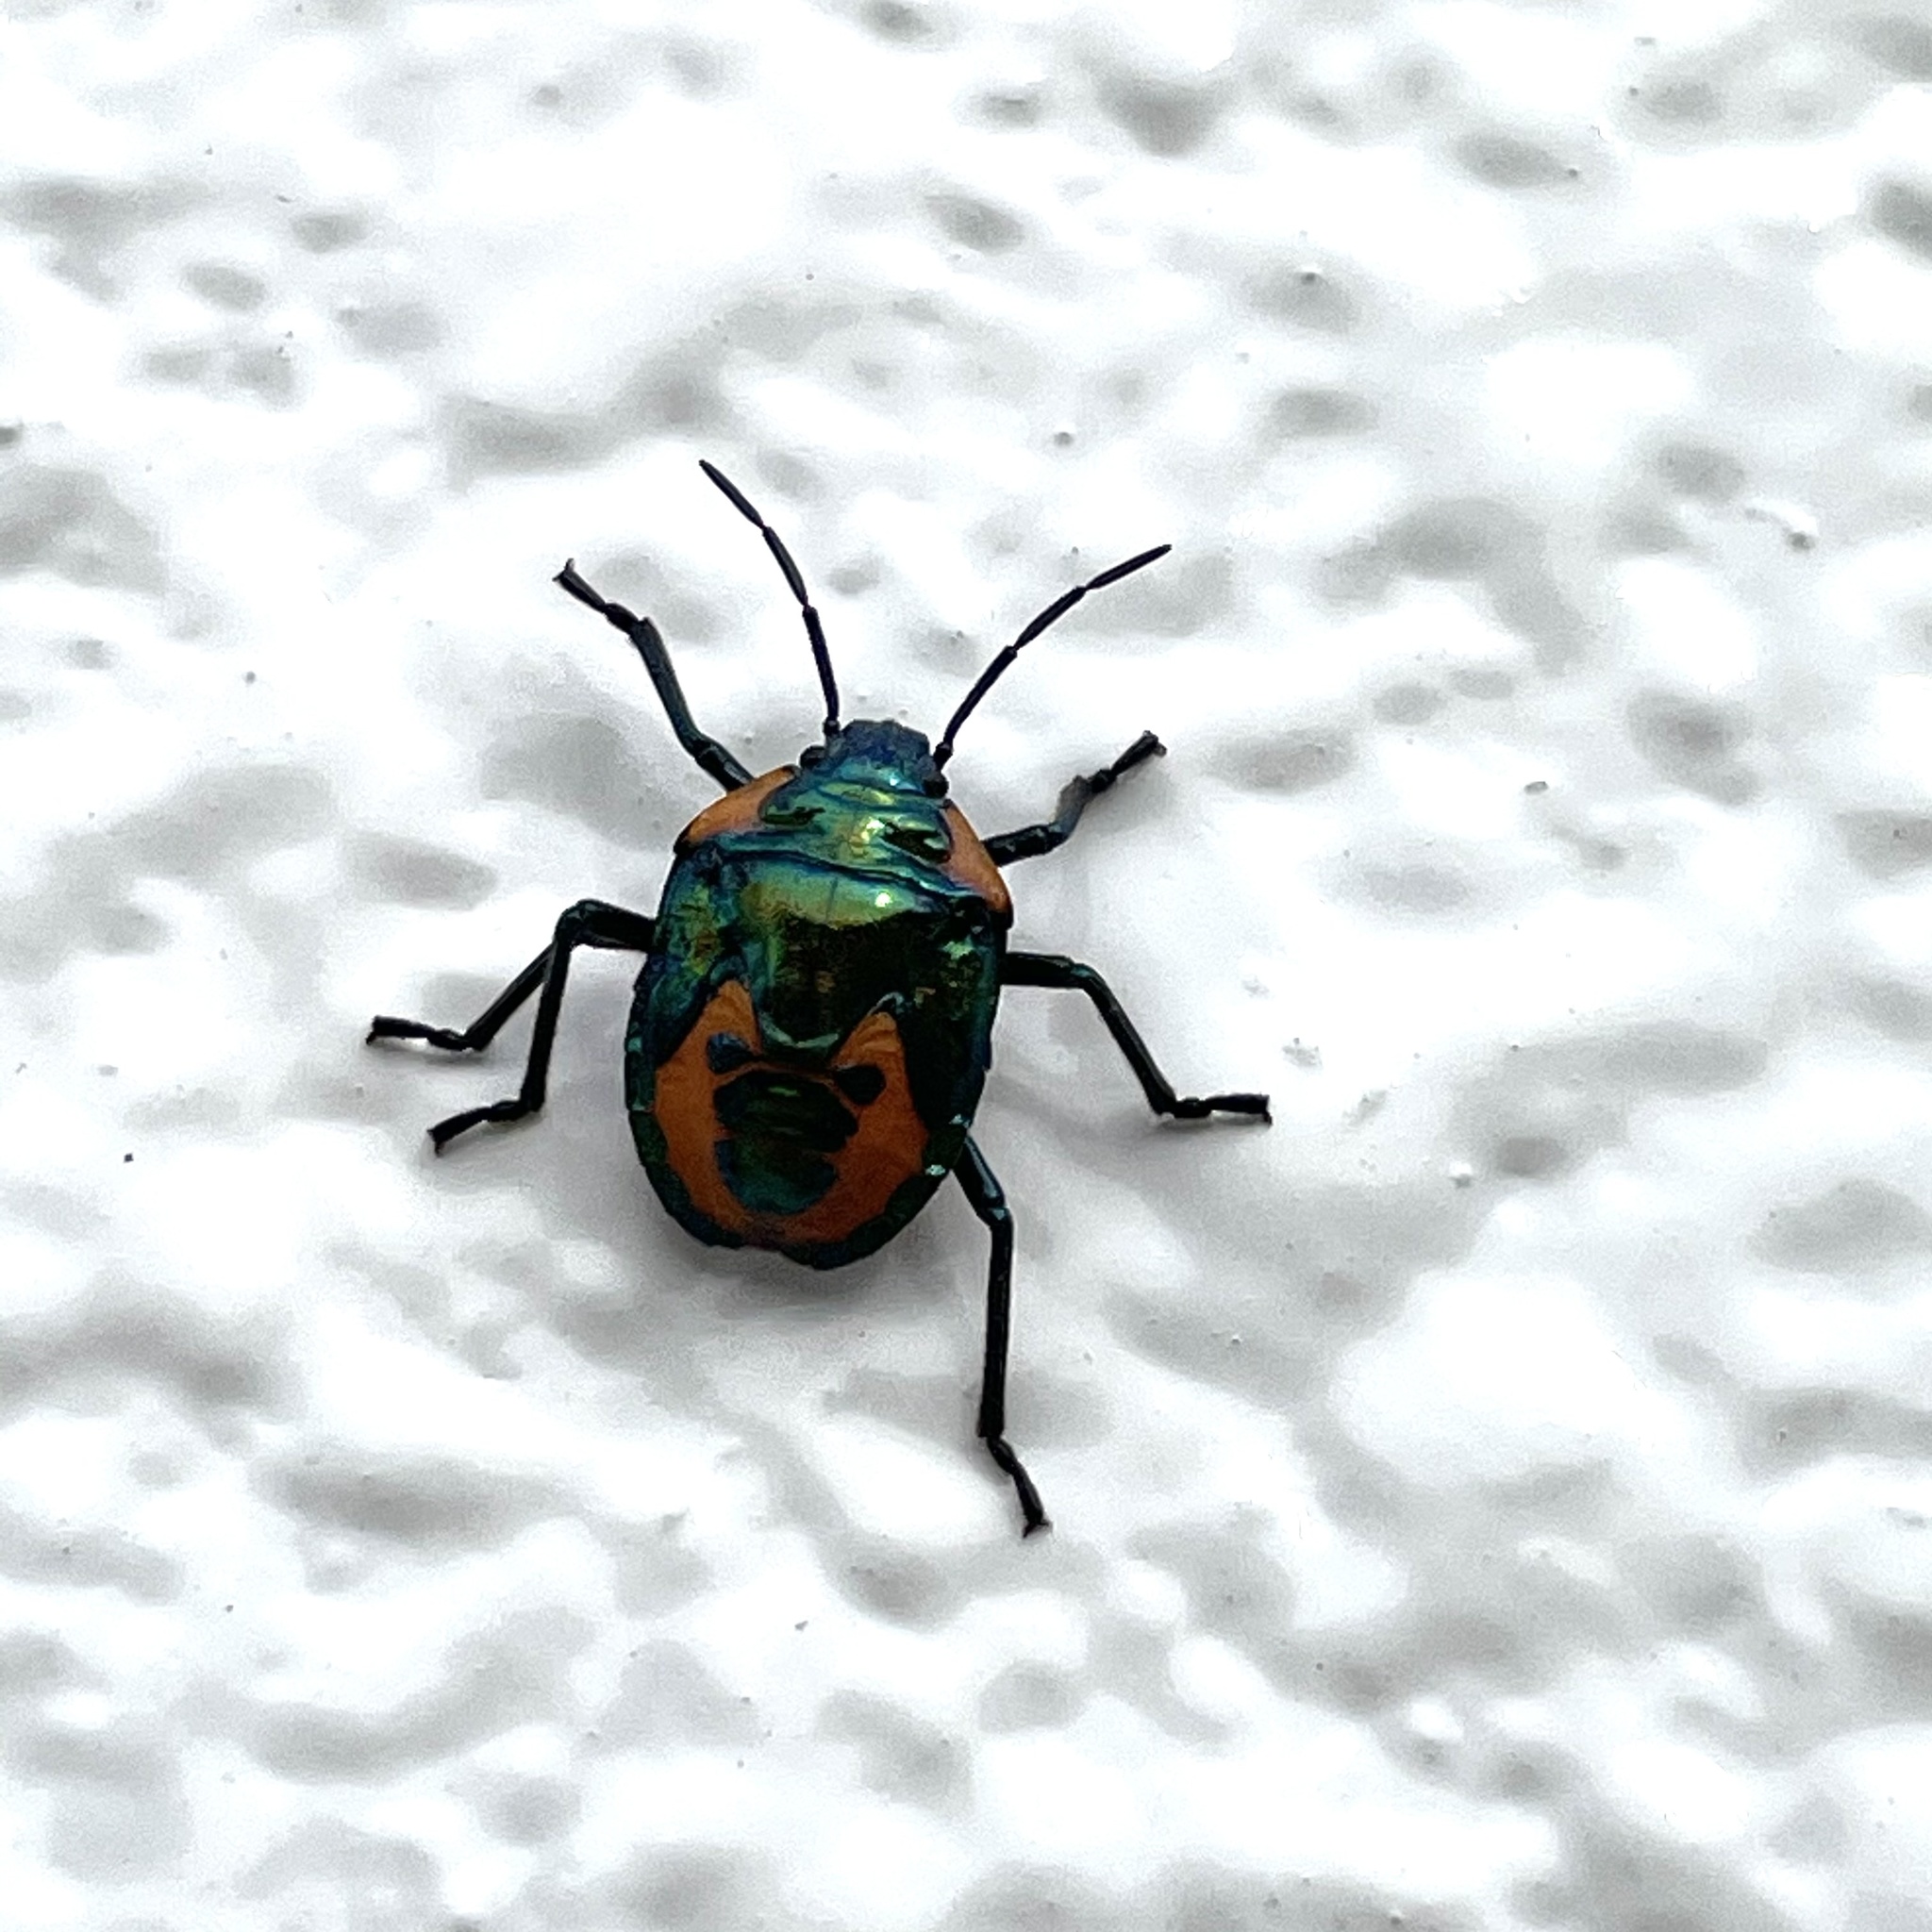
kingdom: Animalia
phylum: Arthropoda
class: Insecta
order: Hemiptera
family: Scutelleridae
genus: Cantao
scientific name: Cantao ocellatus
